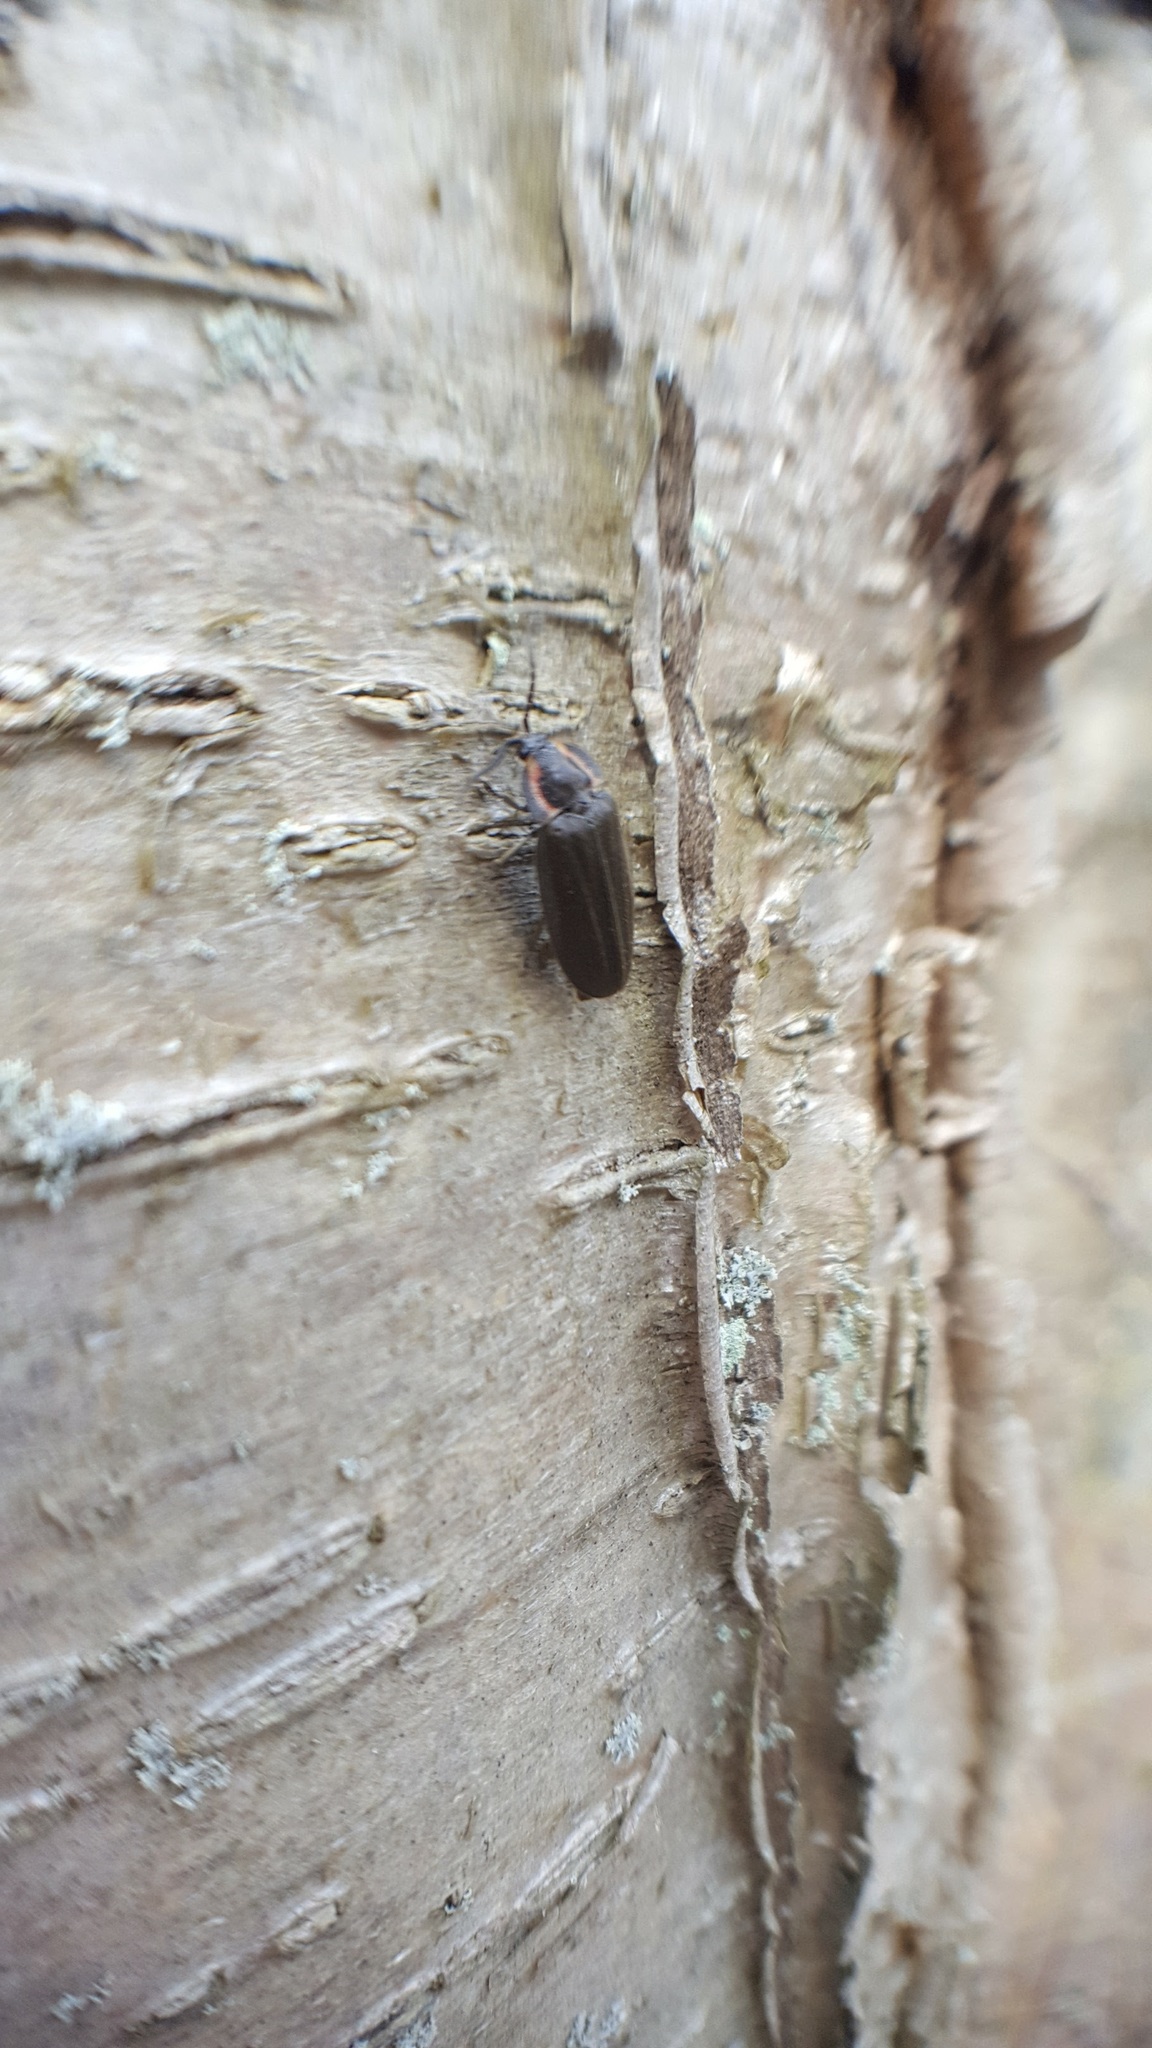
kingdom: Animalia
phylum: Arthropoda
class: Insecta
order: Coleoptera
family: Lampyridae
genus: Photinus
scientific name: Photinus corrusca
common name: Winter firefly
